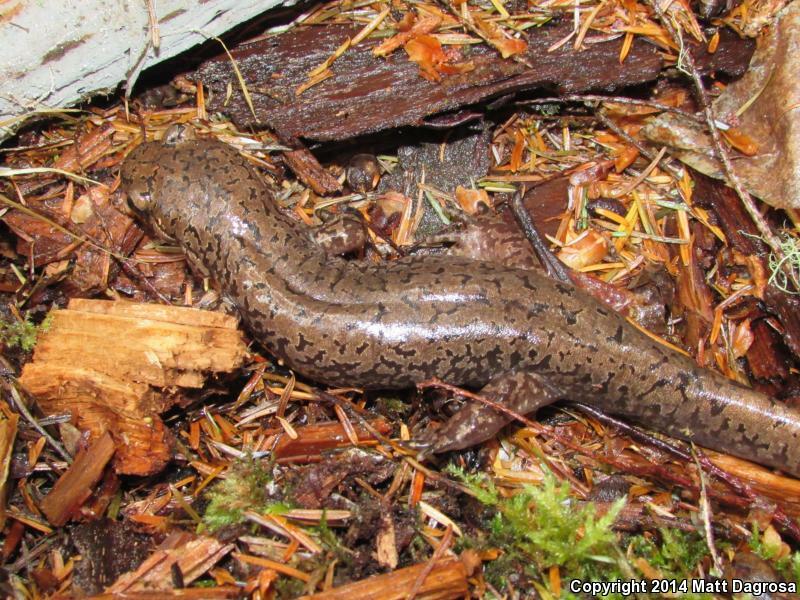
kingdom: Animalia
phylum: Chordata
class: Amphibia
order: Caudata
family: Ambystomatidae
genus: Dicamptodon
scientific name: Dicamptodon tenebrosus
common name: Coastal giant salamander
